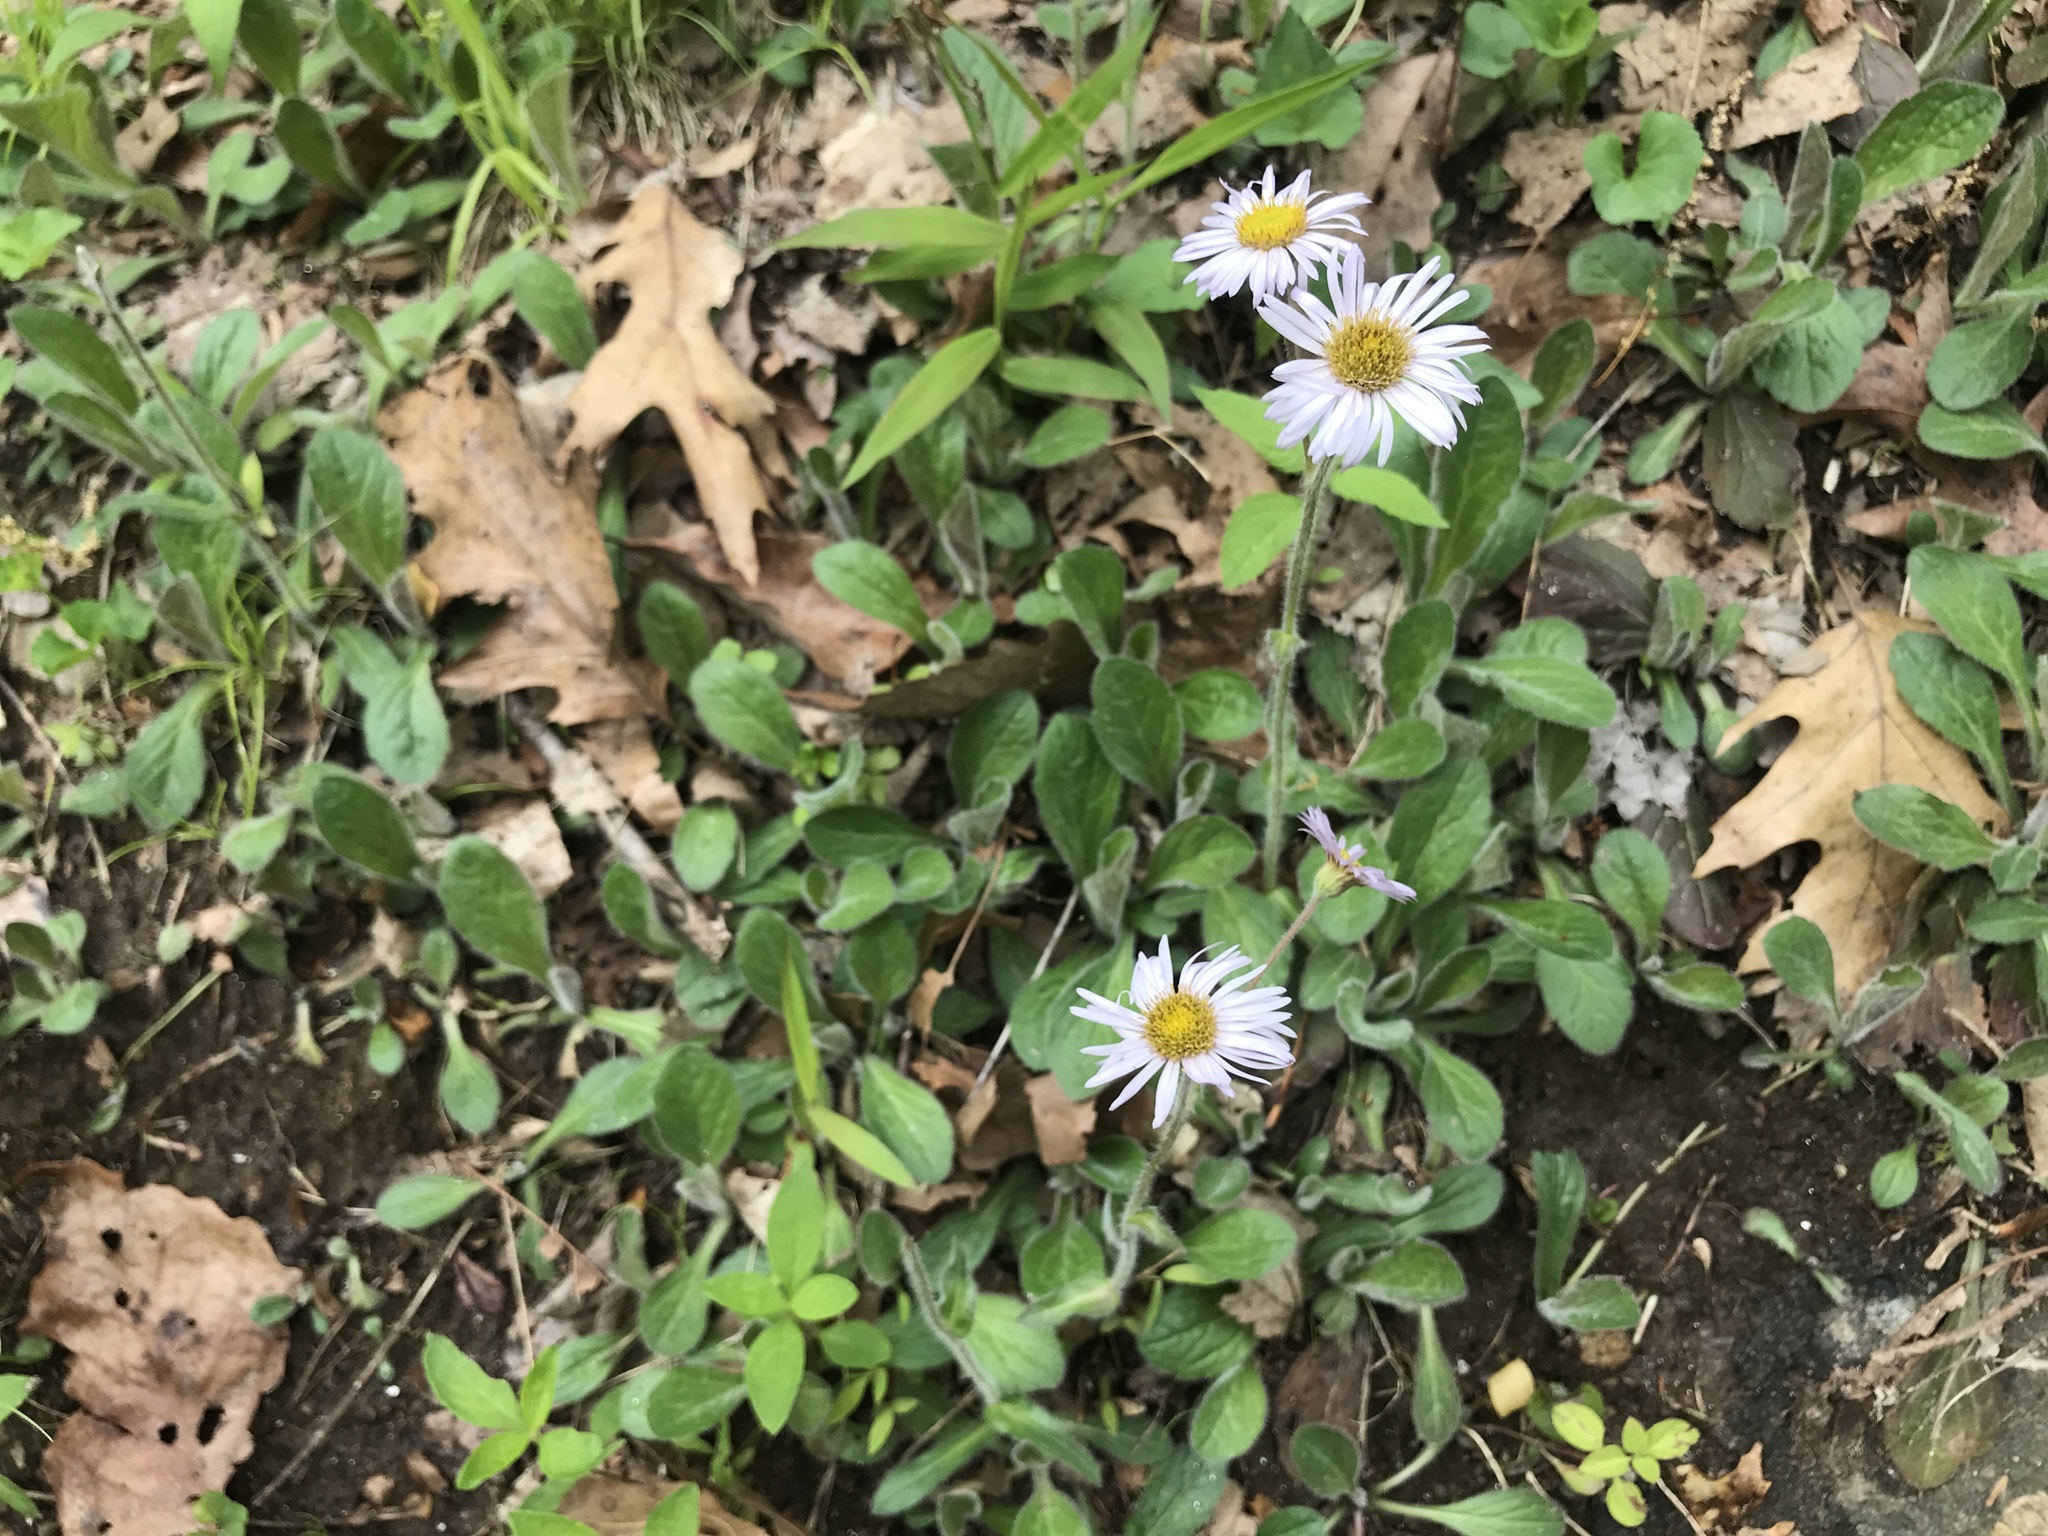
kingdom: Plantae
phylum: Tracheophyta
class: Magnoliopsida
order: Asterales
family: Asteraceae
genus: Erigeron
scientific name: Erigeron pulchellus
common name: Hairy fleabane
